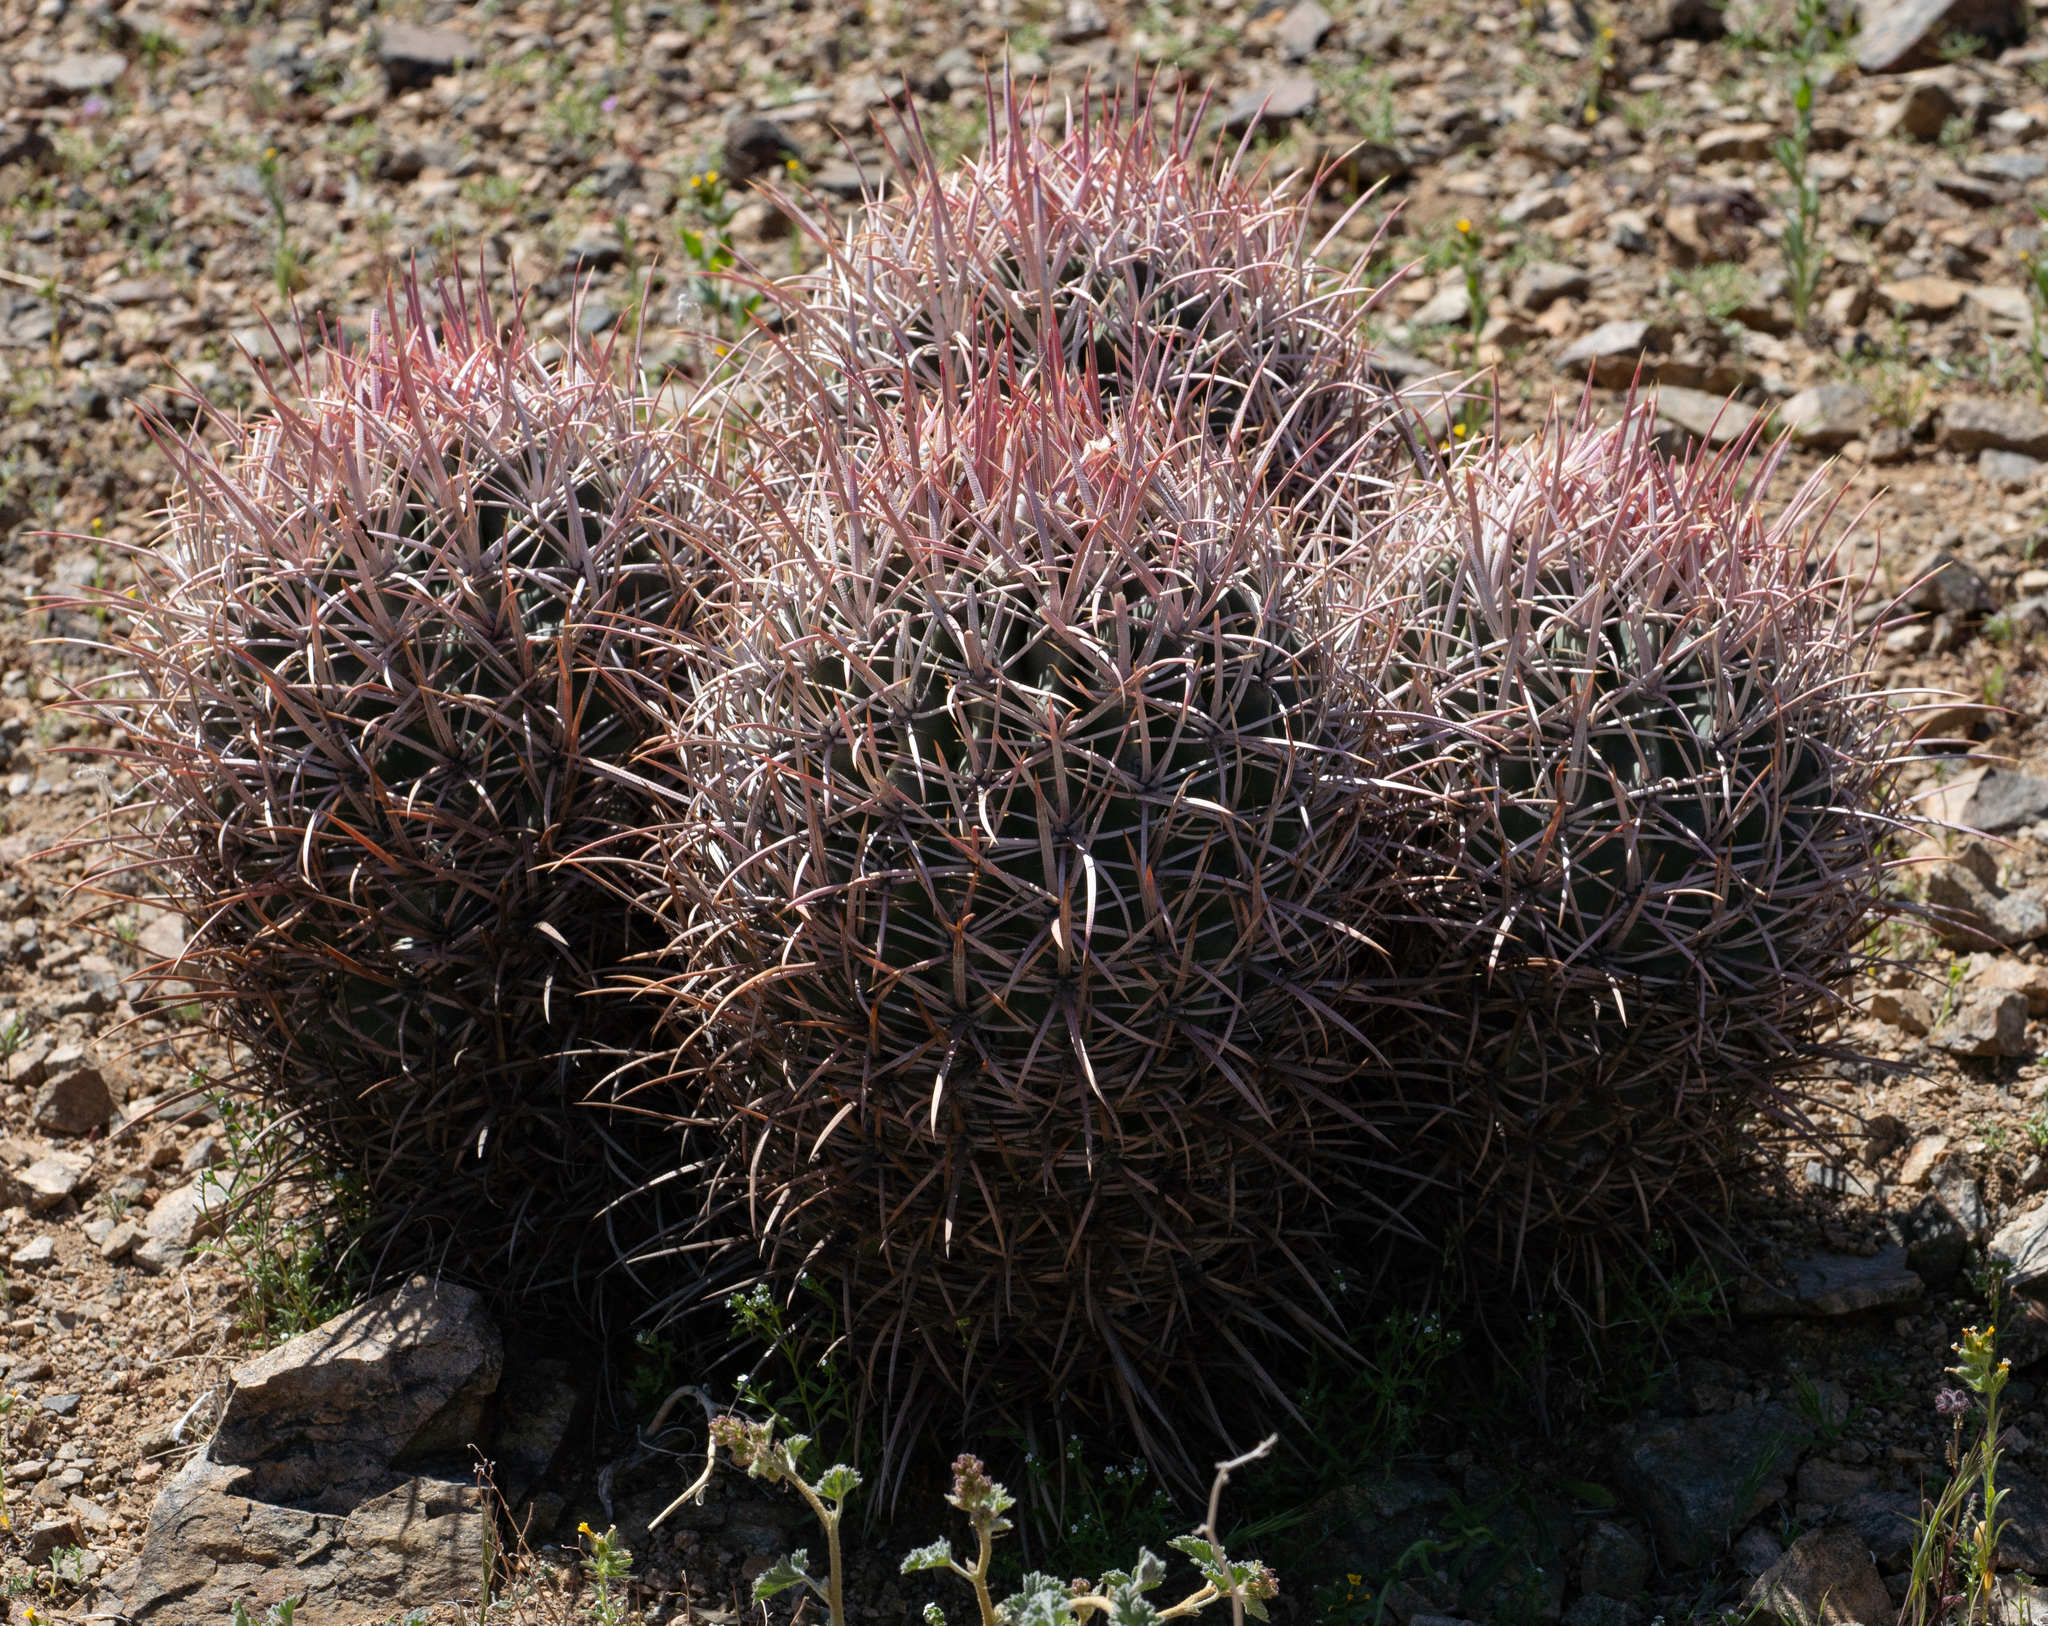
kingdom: Plantae
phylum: Tracheophyta
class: Magnoliopsida
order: Caryophyllales
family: Cactaceae
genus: Echinocactus
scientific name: Echinocactus polycephalus
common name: Cottontop cactus
